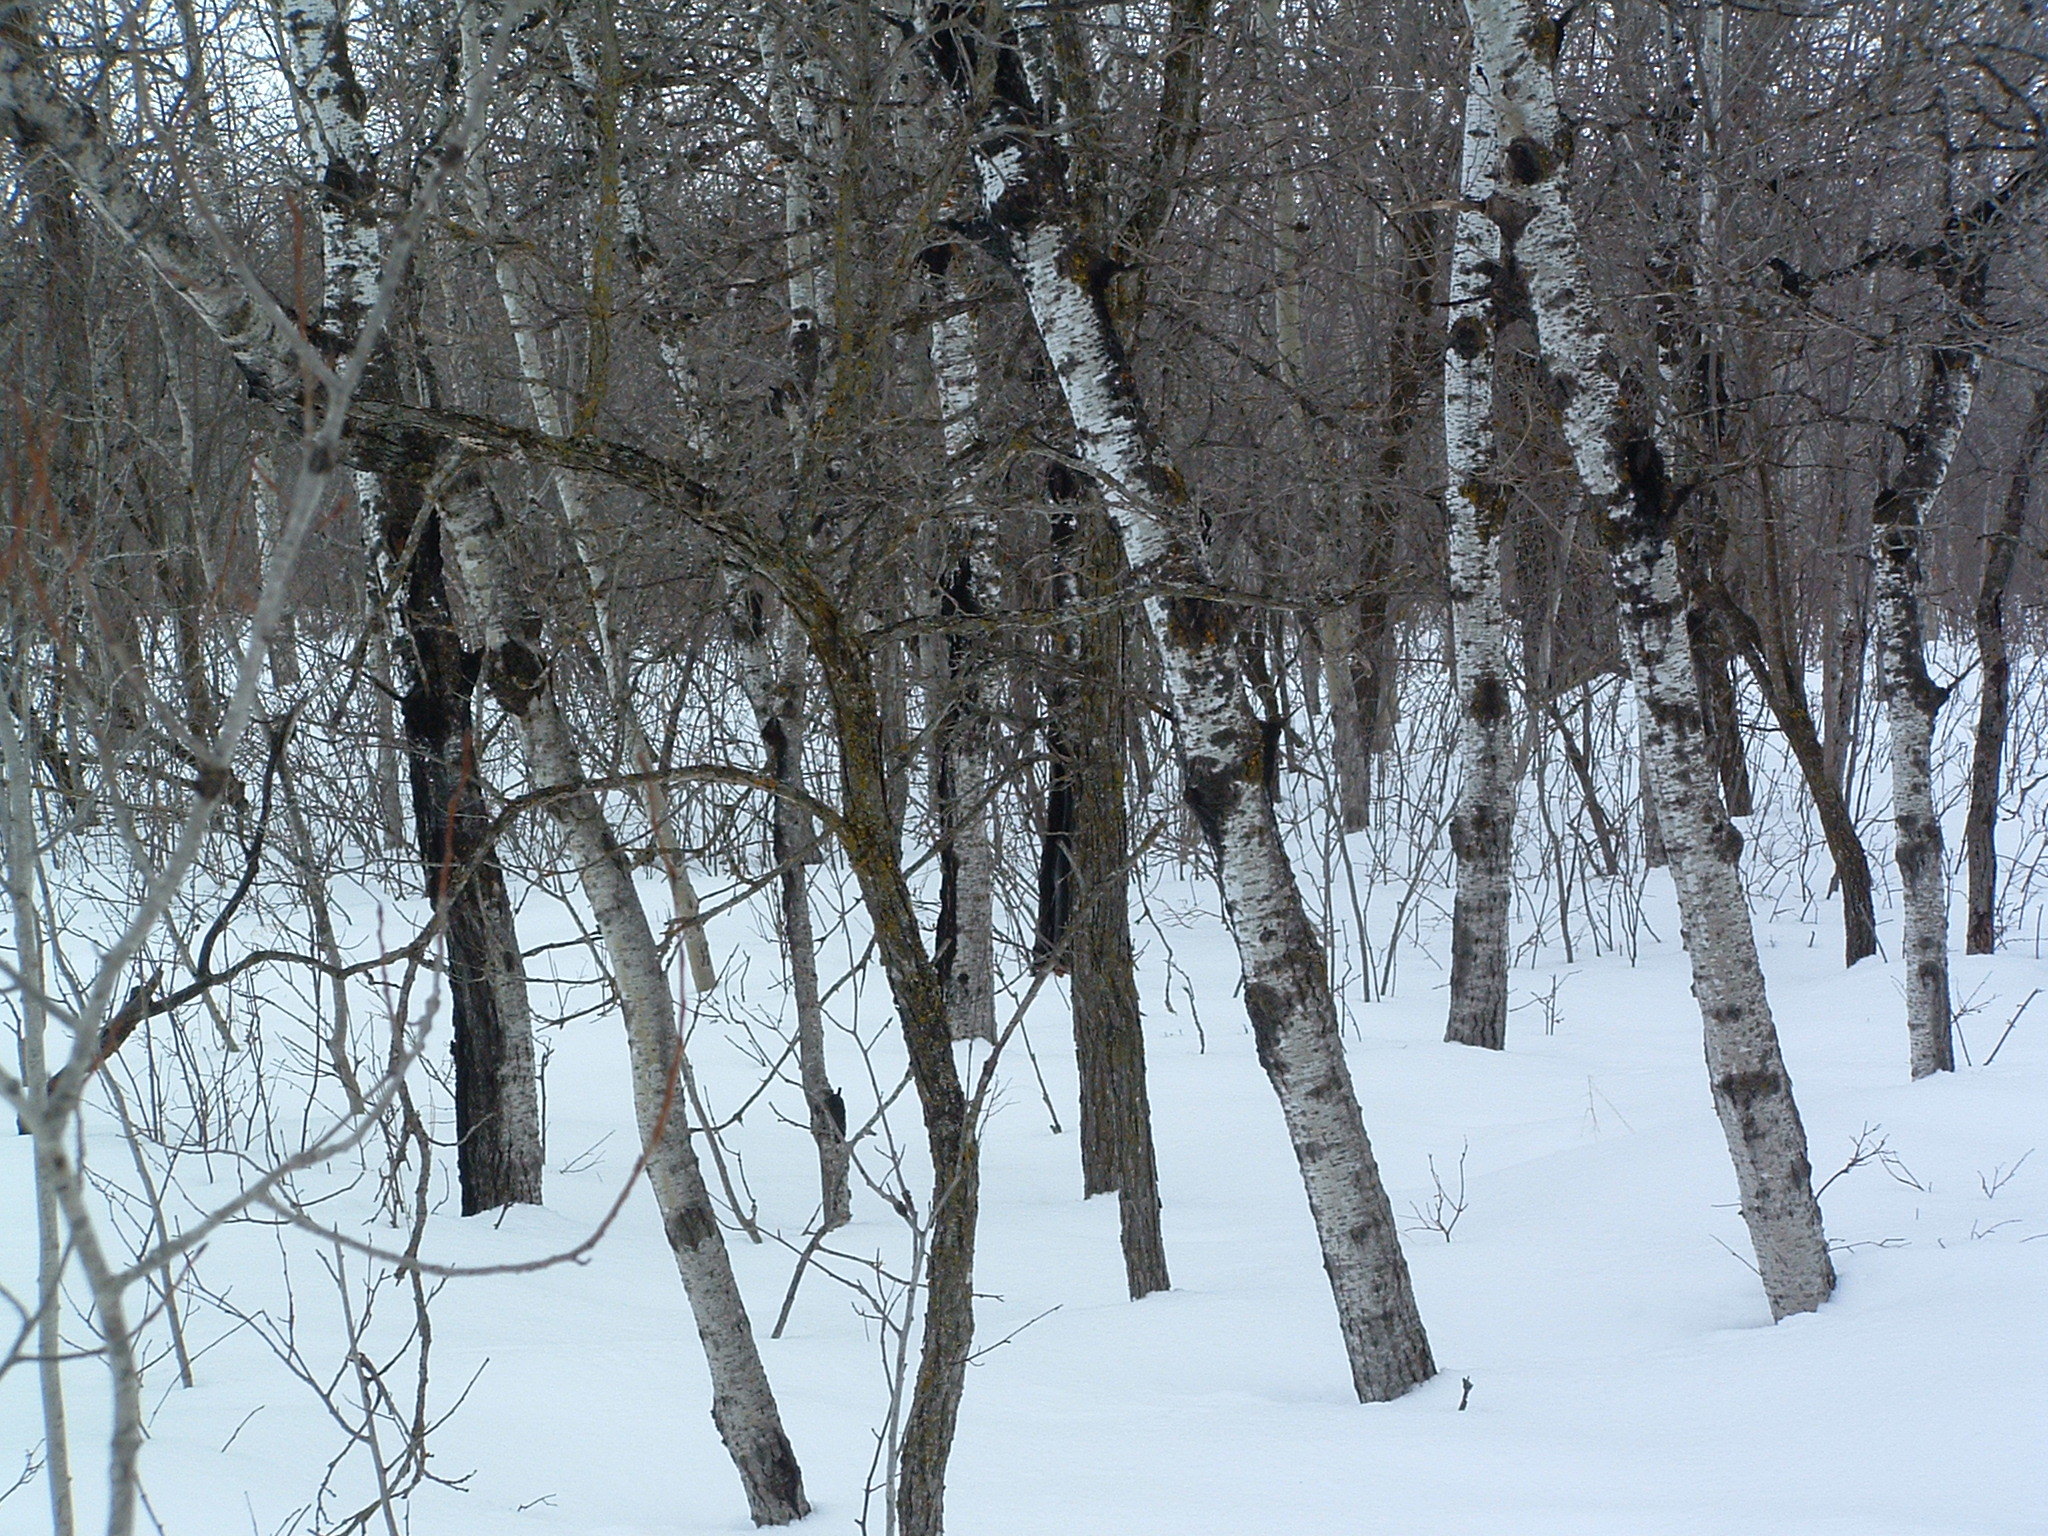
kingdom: Plantae
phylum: Tracheophyta
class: Magnoliopsida
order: Malpighiales
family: Salicaceae
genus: Populus
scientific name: Populus tremuloides
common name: Quaking aspen
